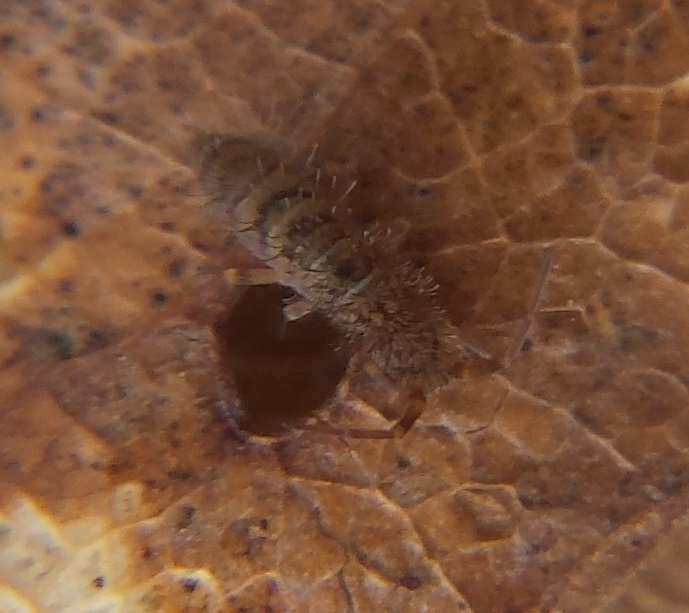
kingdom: Animalia
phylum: Arthropoda
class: Collembola
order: Entomobryomorpha
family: Orchesellidae
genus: Orchesella
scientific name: Orchesella villosa
